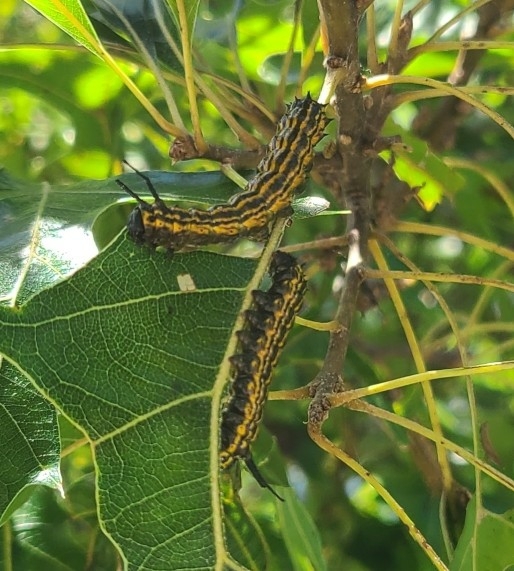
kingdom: Animalia
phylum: Arthropoda
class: Insecta
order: Lepidoptera
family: Saturniidae
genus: Anisota
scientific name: Anisota senatoria
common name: Orange-striped oakworm moth
